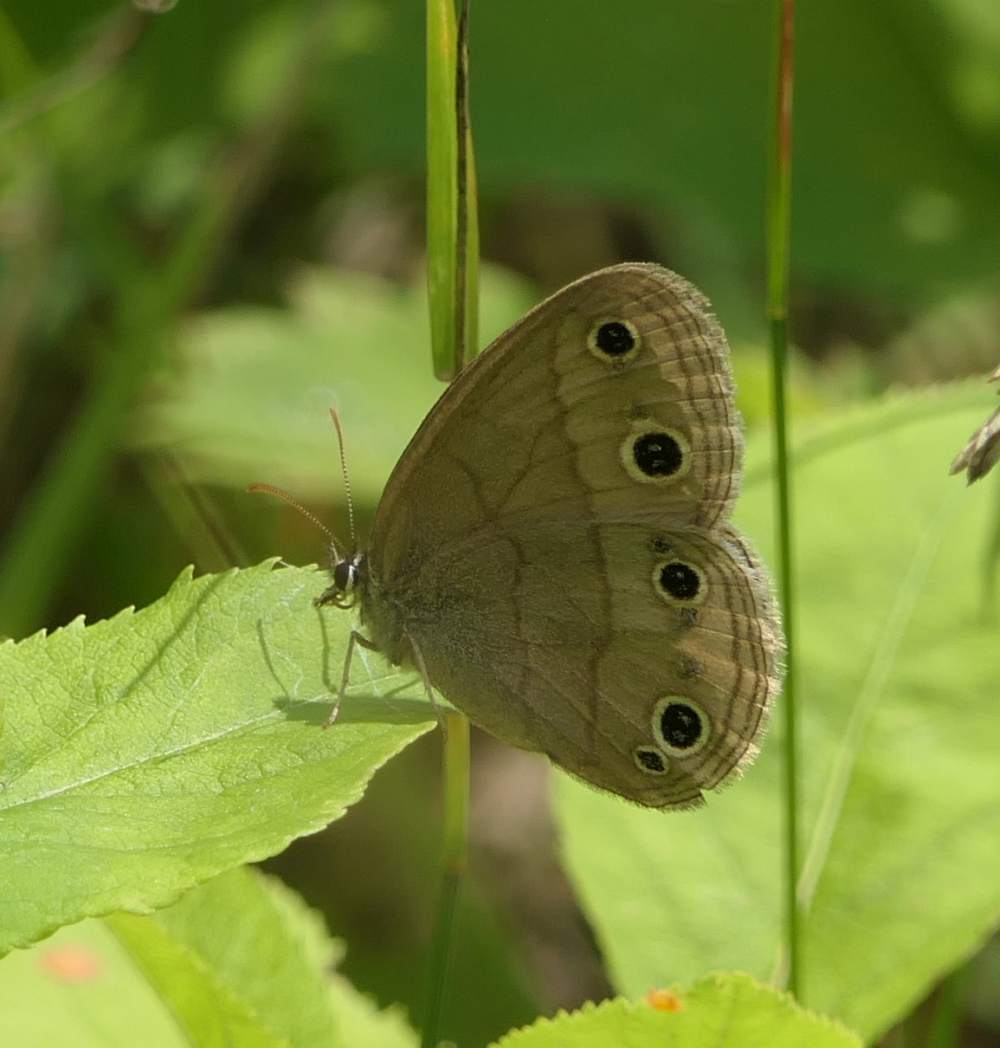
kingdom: Animalia
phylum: Arthropoda
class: Insecta
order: Lepidoptera
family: Nymphalidae
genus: Euptychia
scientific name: Euptychia cymela
